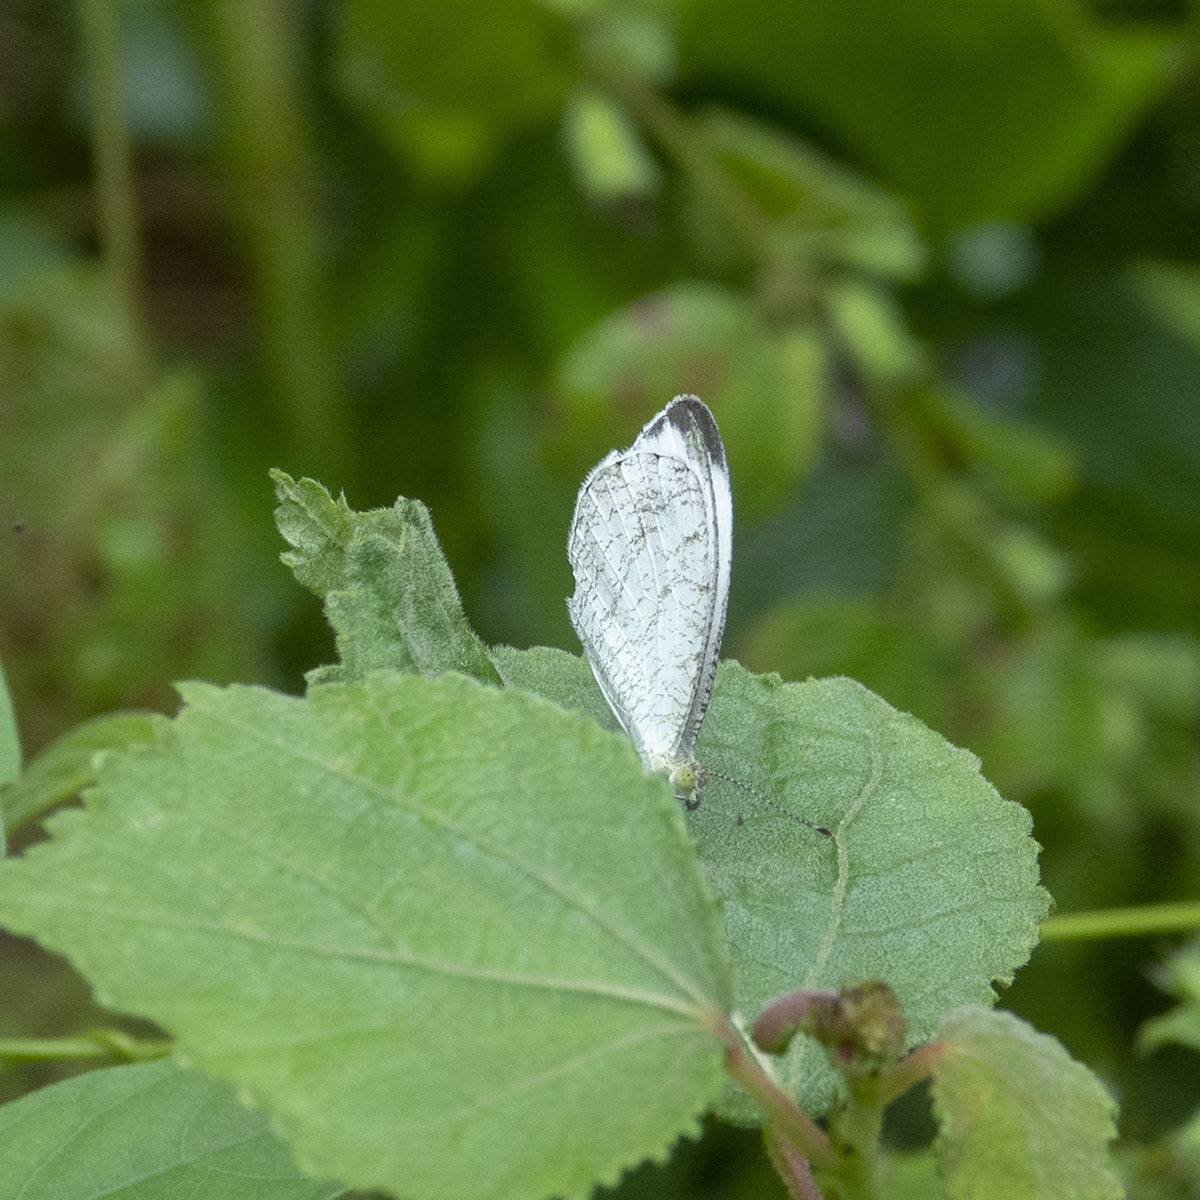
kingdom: Animalia
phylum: Arthropoda
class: Insecta
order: Lepidoptera
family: Pieridae
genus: Leptosia
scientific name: Leptosia nina
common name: Psyche
